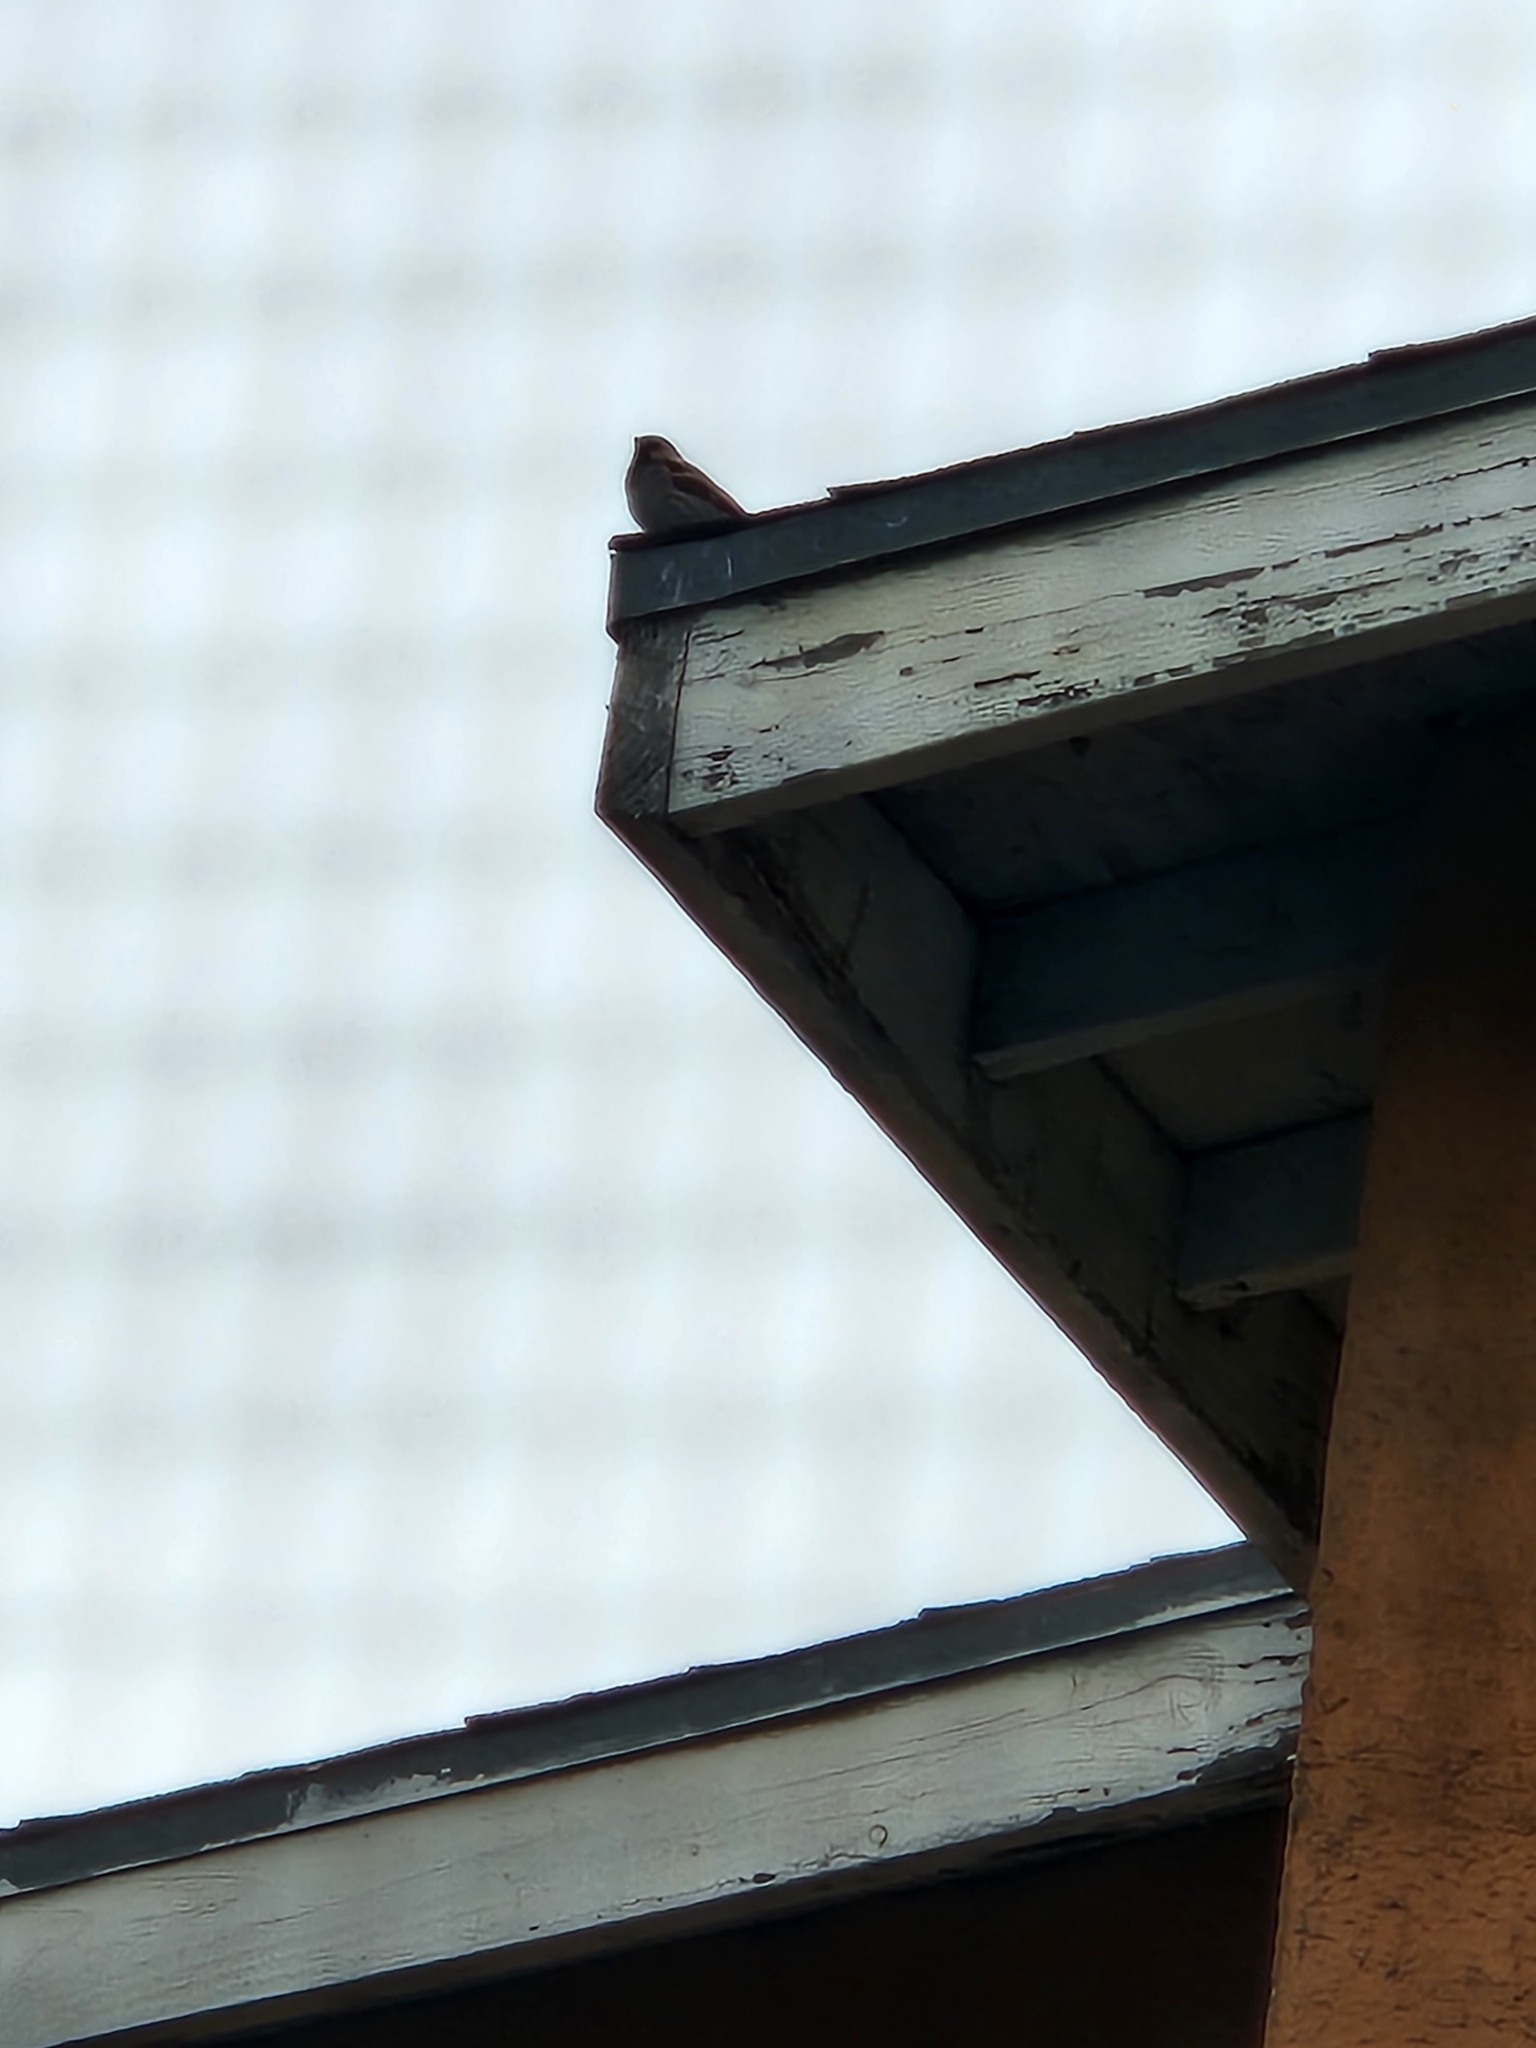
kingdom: Animalia
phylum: Chordata
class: Aves
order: Passeriformes
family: Passeridae
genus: Passer
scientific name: Passer domesticus
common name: House sparrow
